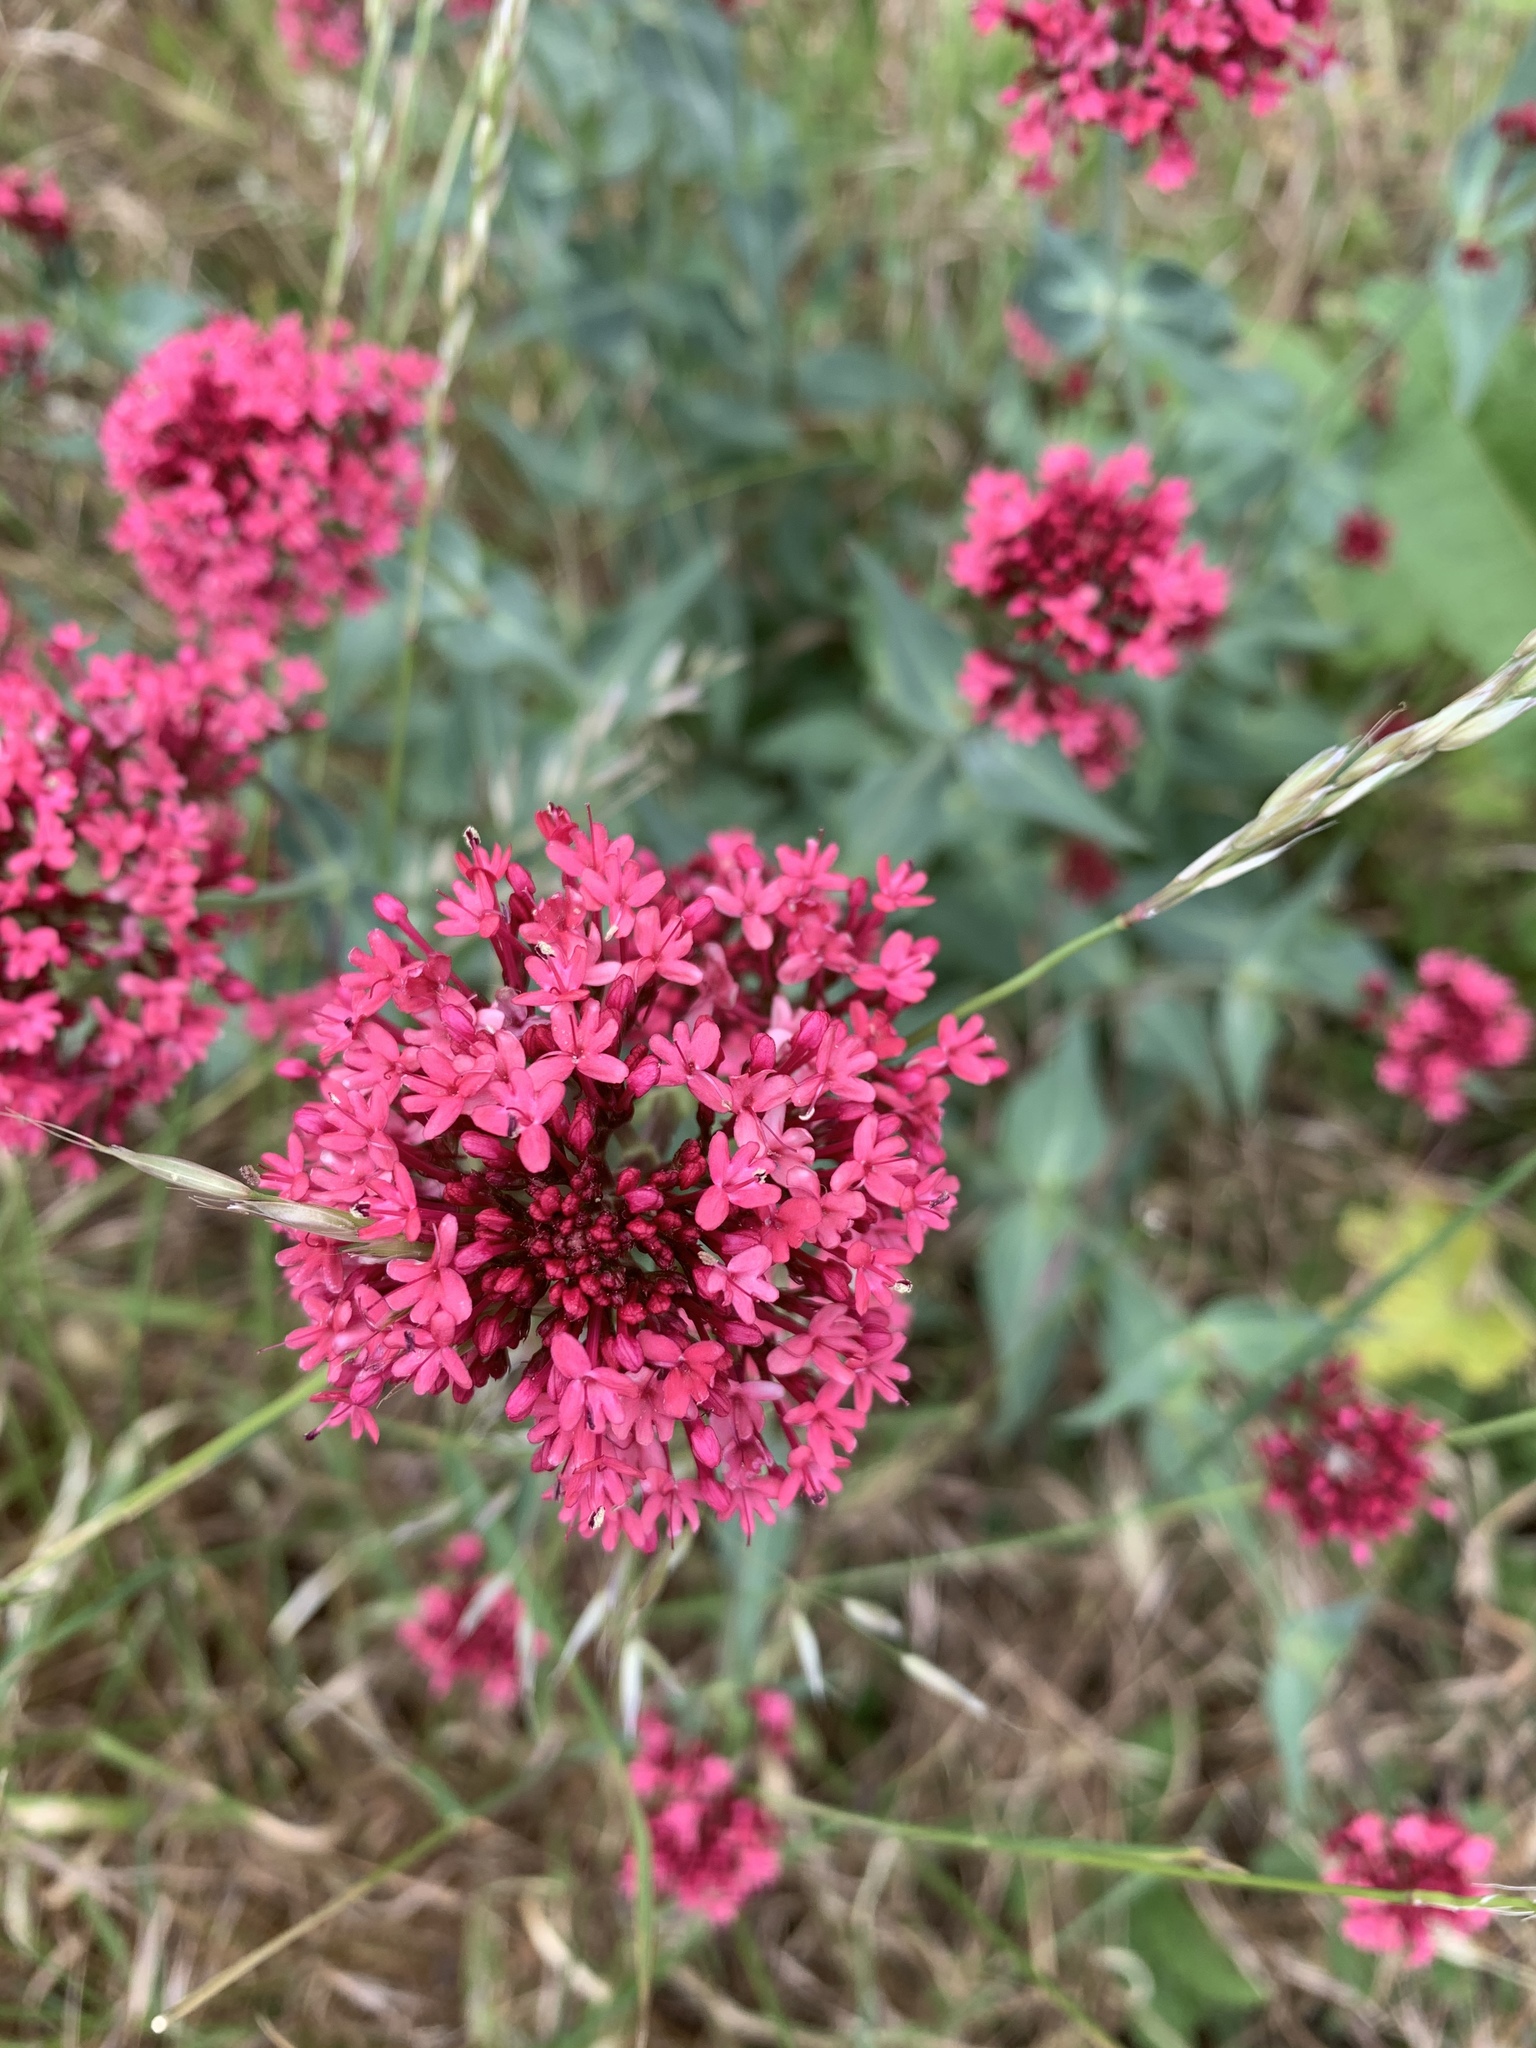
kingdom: Plantae
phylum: Tracheophyta
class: Magnoliopsida
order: Dipsacales
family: Caprifoliaceae
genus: Centranthus
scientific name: Centranthus ruber
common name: Red valerian
